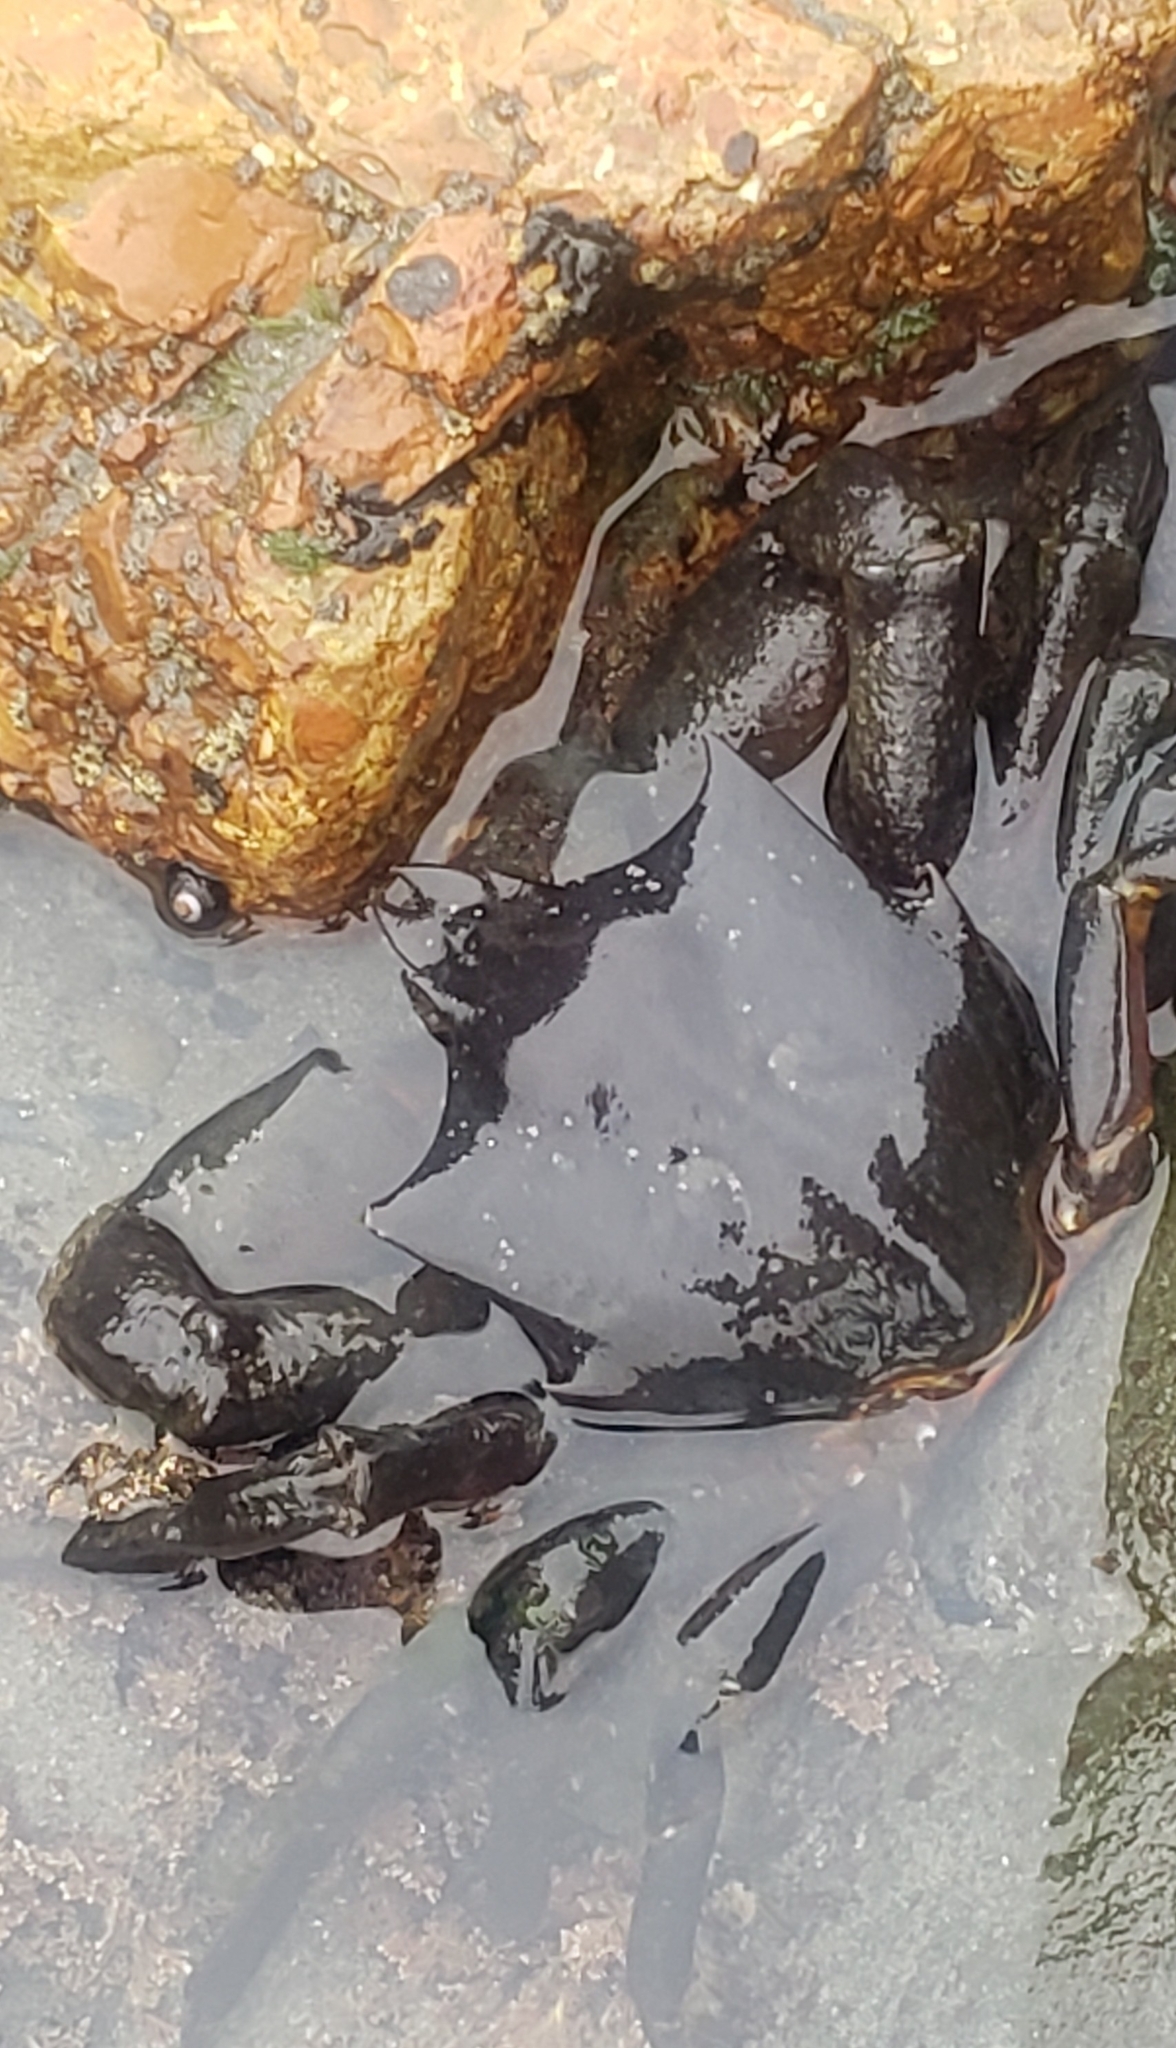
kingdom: Animalia
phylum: Arthropoda
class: Malacostraca
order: Decapoda
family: Epialtidae
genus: Pugettia
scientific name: Pugettia producta
